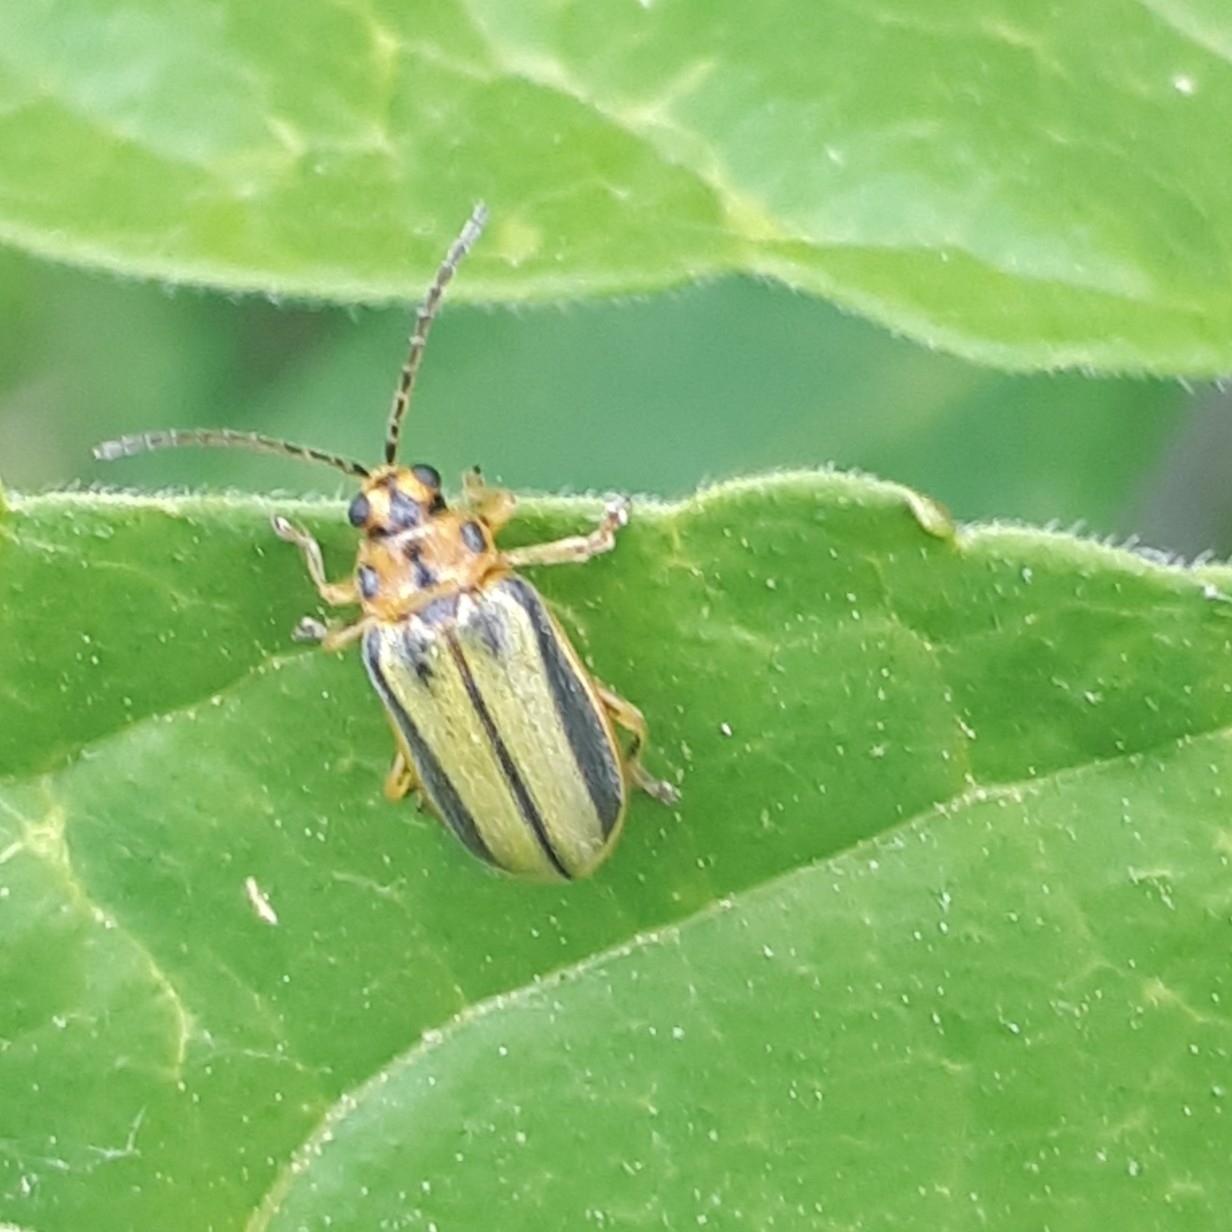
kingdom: Animalia
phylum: Arthropoda
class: Insecta
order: Coleoptera
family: Chrysomelidae
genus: Xanthogaleruca
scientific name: Xanthogaleruca luteola
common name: Elm leaf beetle
